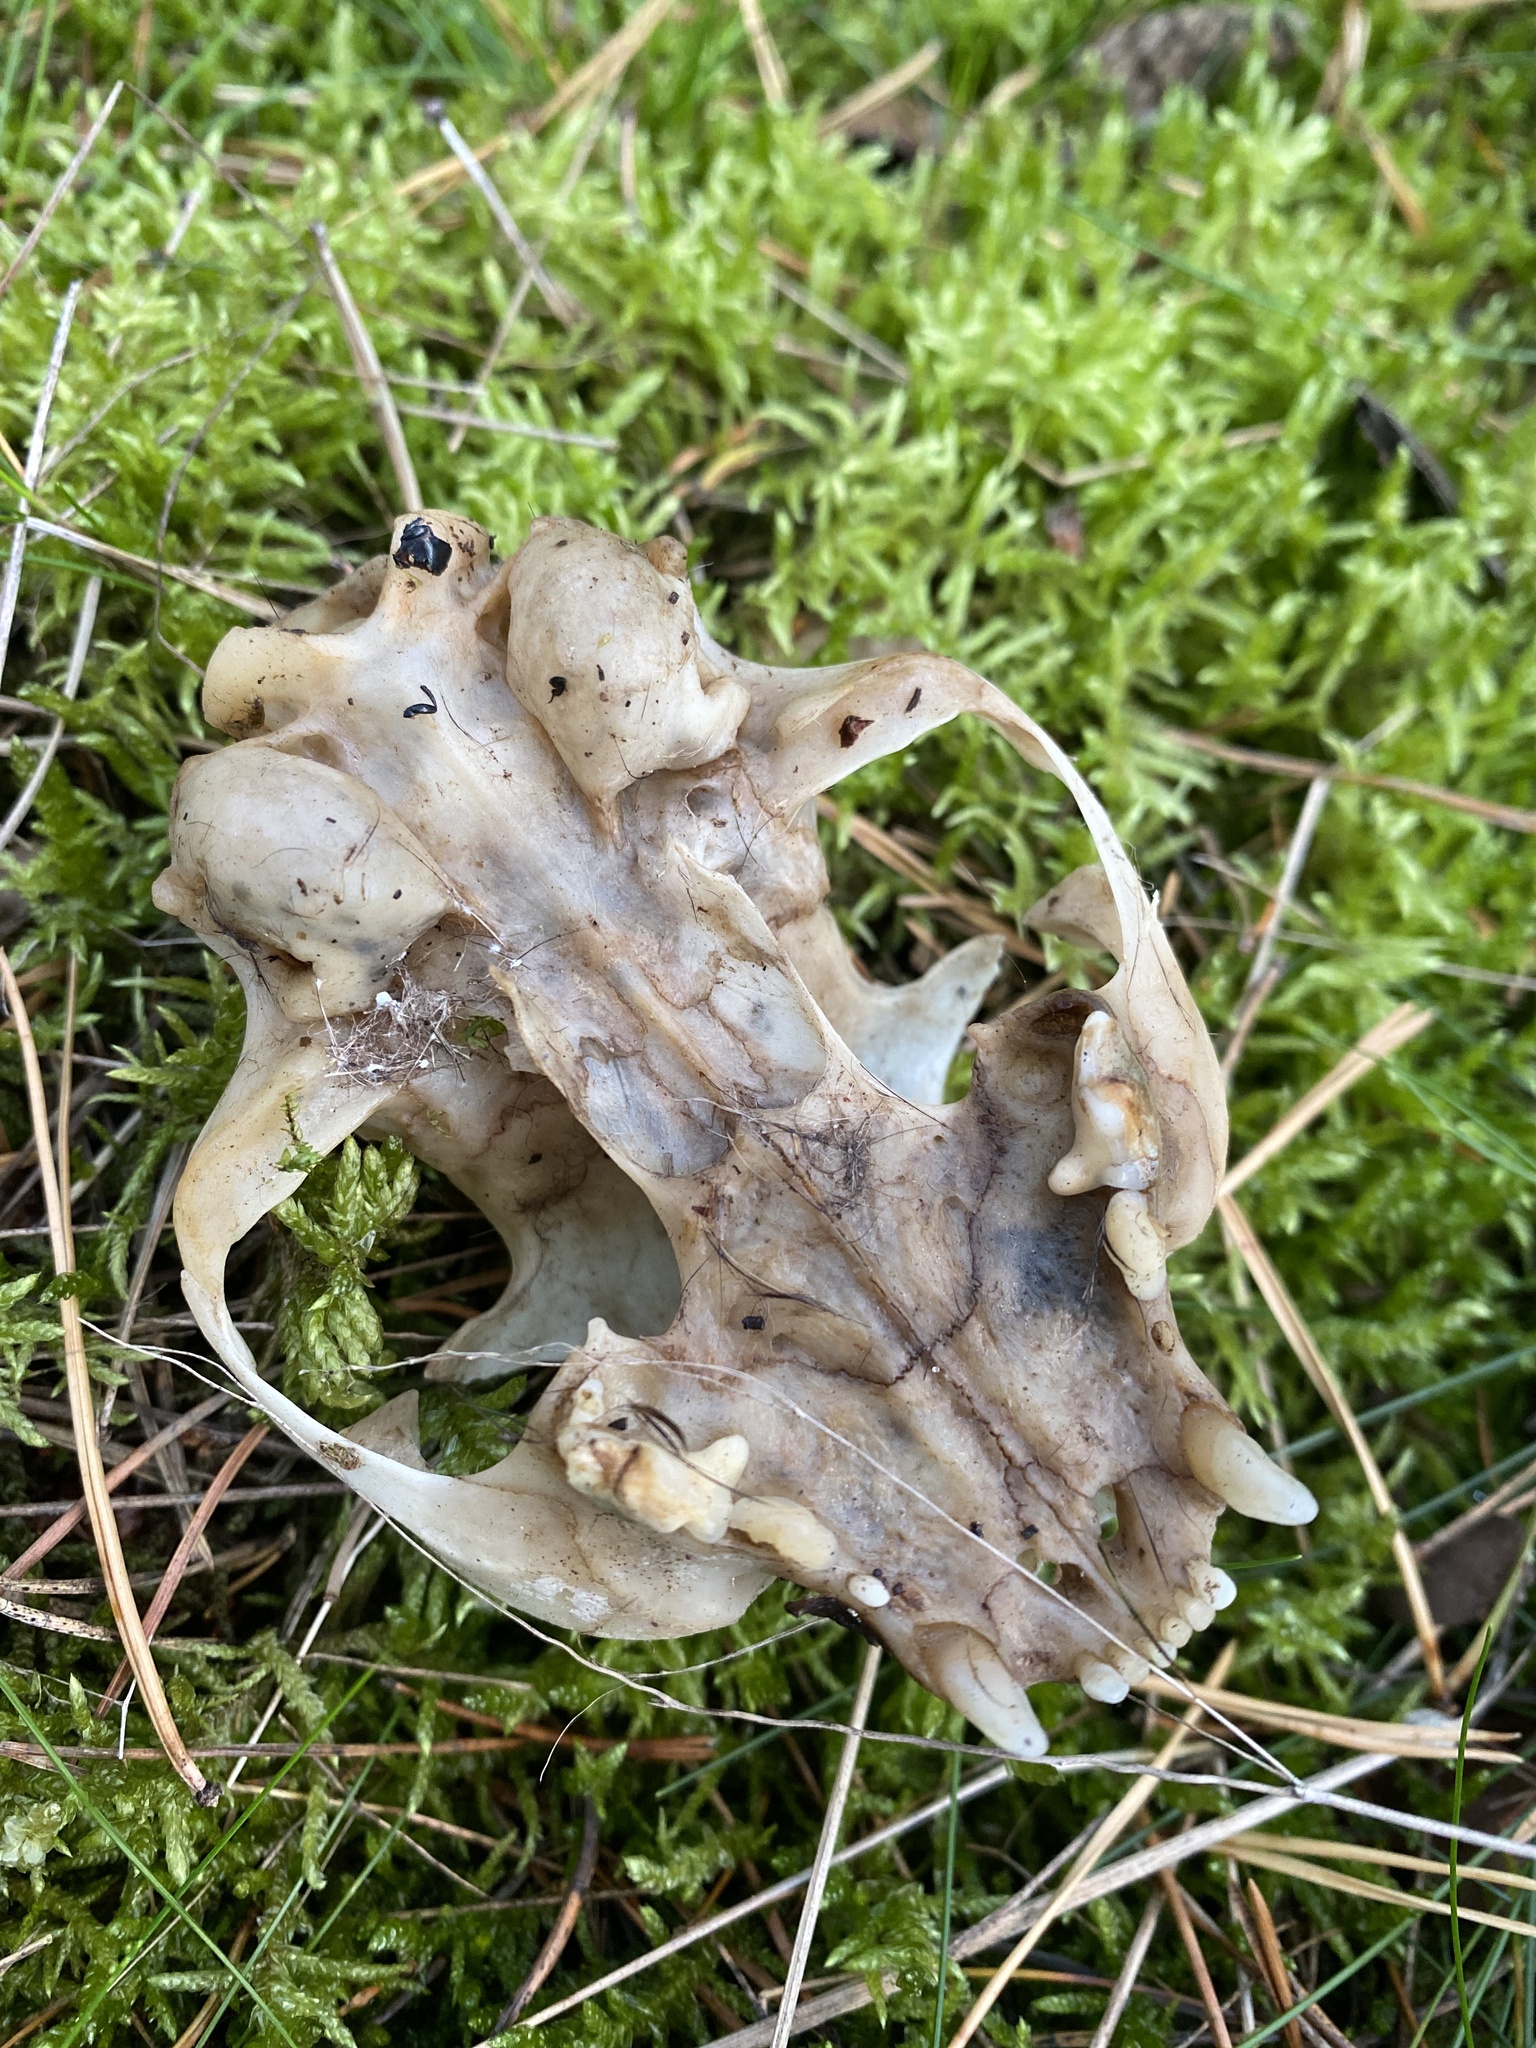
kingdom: Animalia
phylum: Chordata
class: Mammalia
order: Carnivora
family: Felidae
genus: Felis
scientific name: Felis catus
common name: Domestic cat
